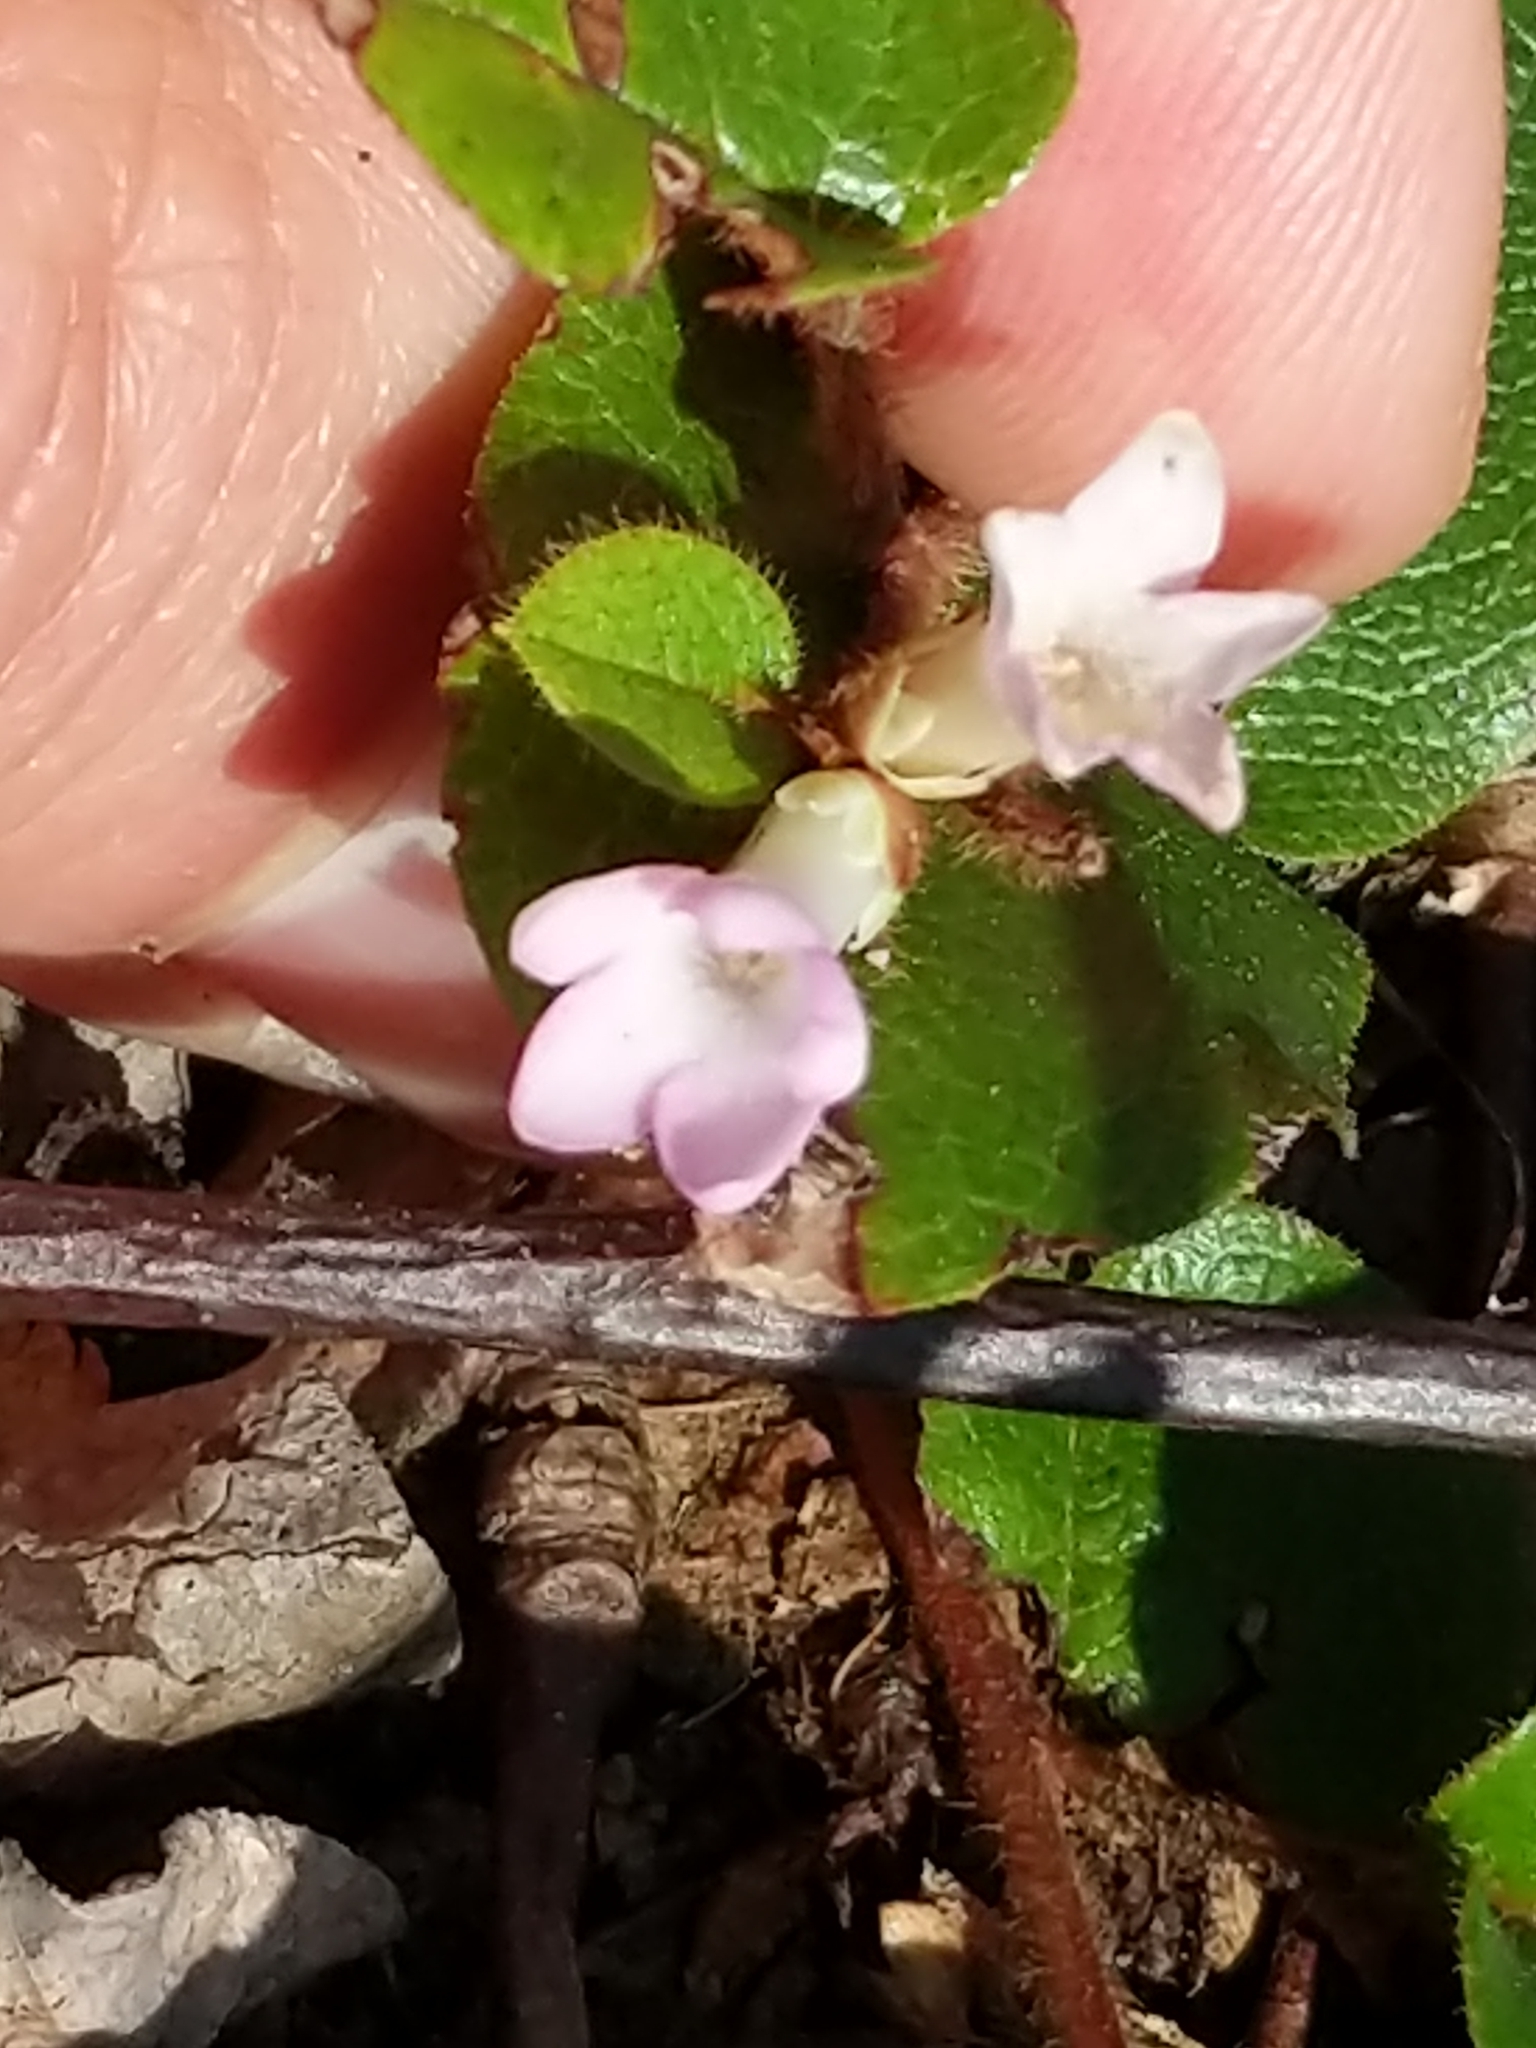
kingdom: Plantae
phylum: Tracheophyta
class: Magnoliopsida
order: Ericales
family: Ericaceae
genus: Epigaea
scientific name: Epigaea repens
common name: Gravelroot
